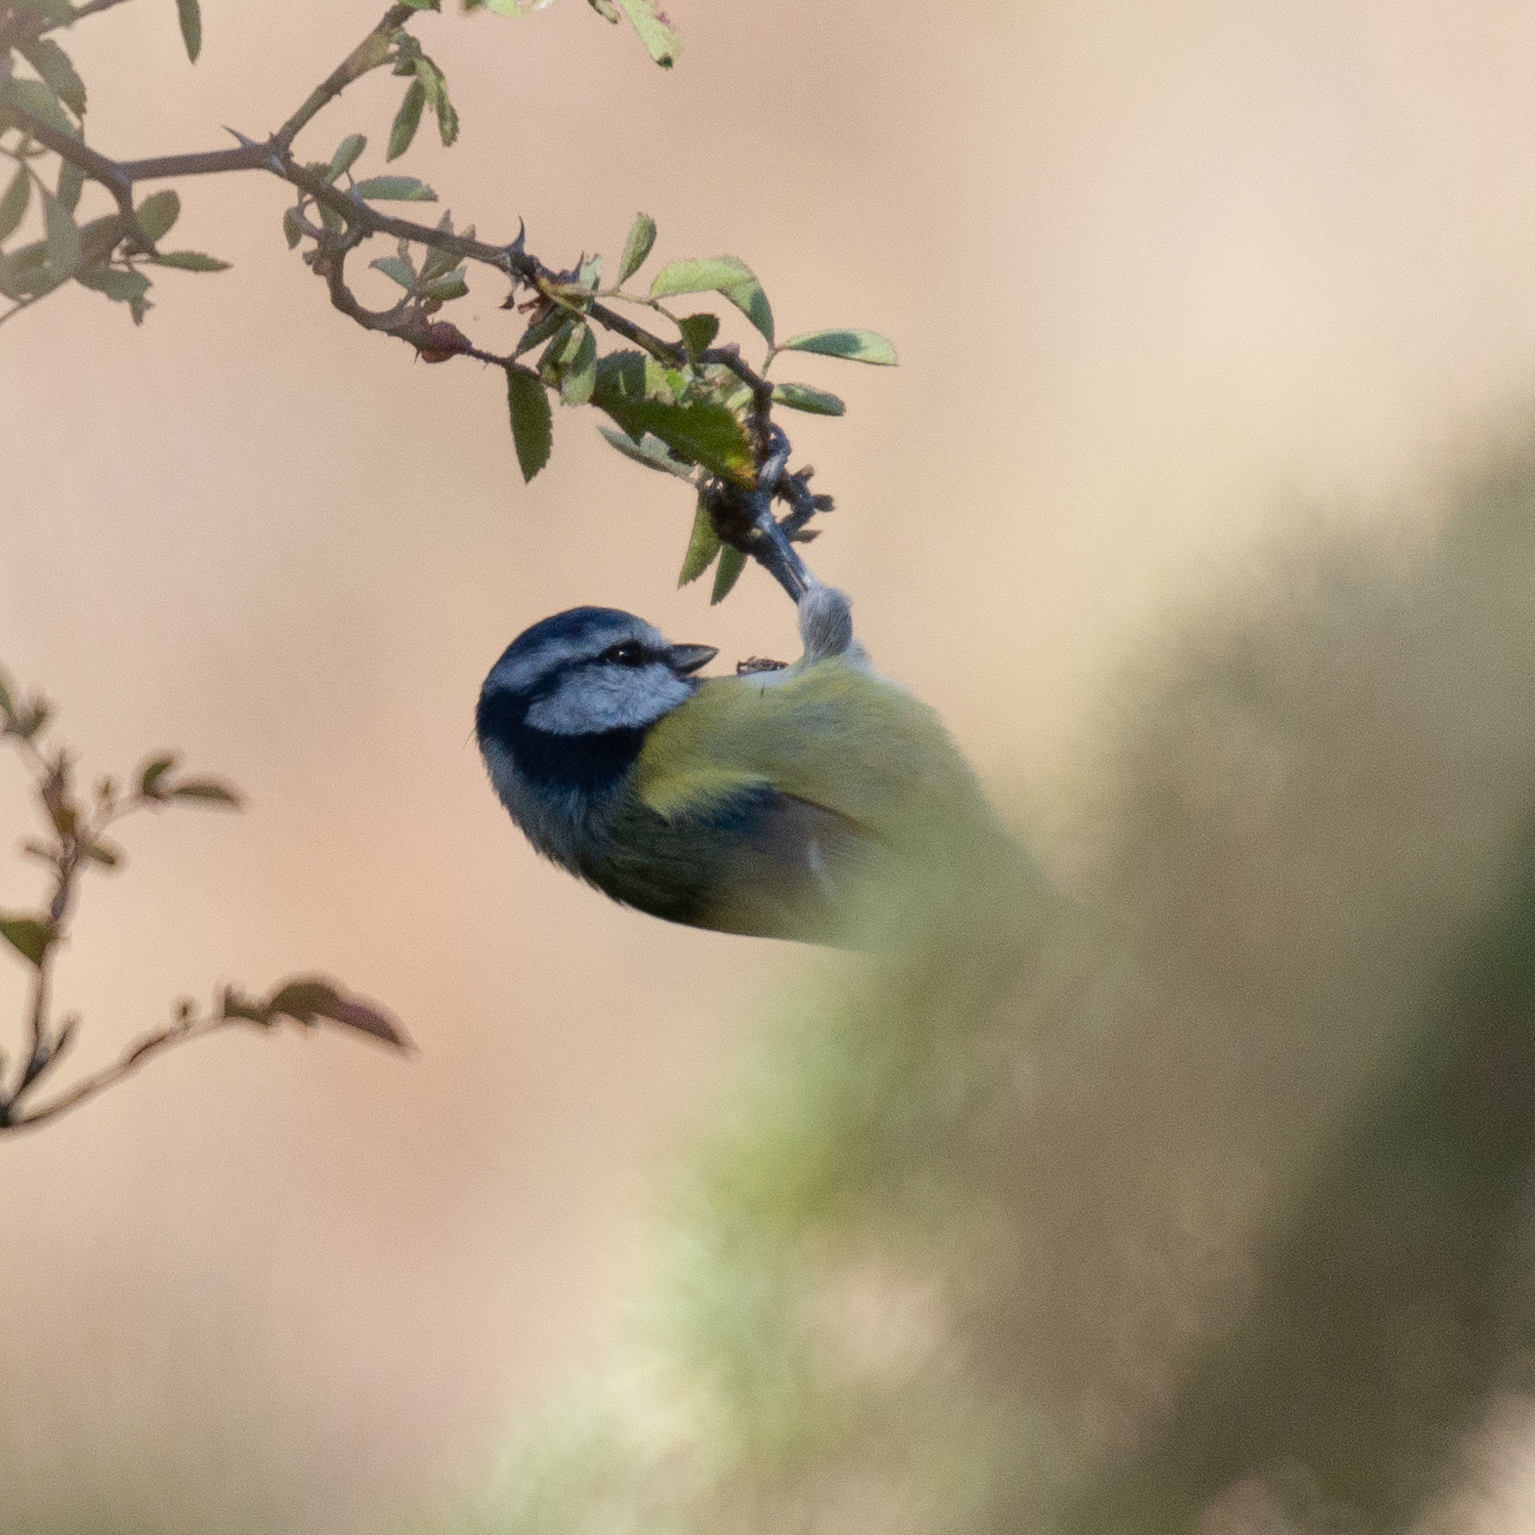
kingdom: Animalia
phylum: Chordata
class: Aves
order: Passeriformes
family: Paridae
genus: Cyanistes
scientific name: Cyanistes caeruleus
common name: Eurasian blue tit
